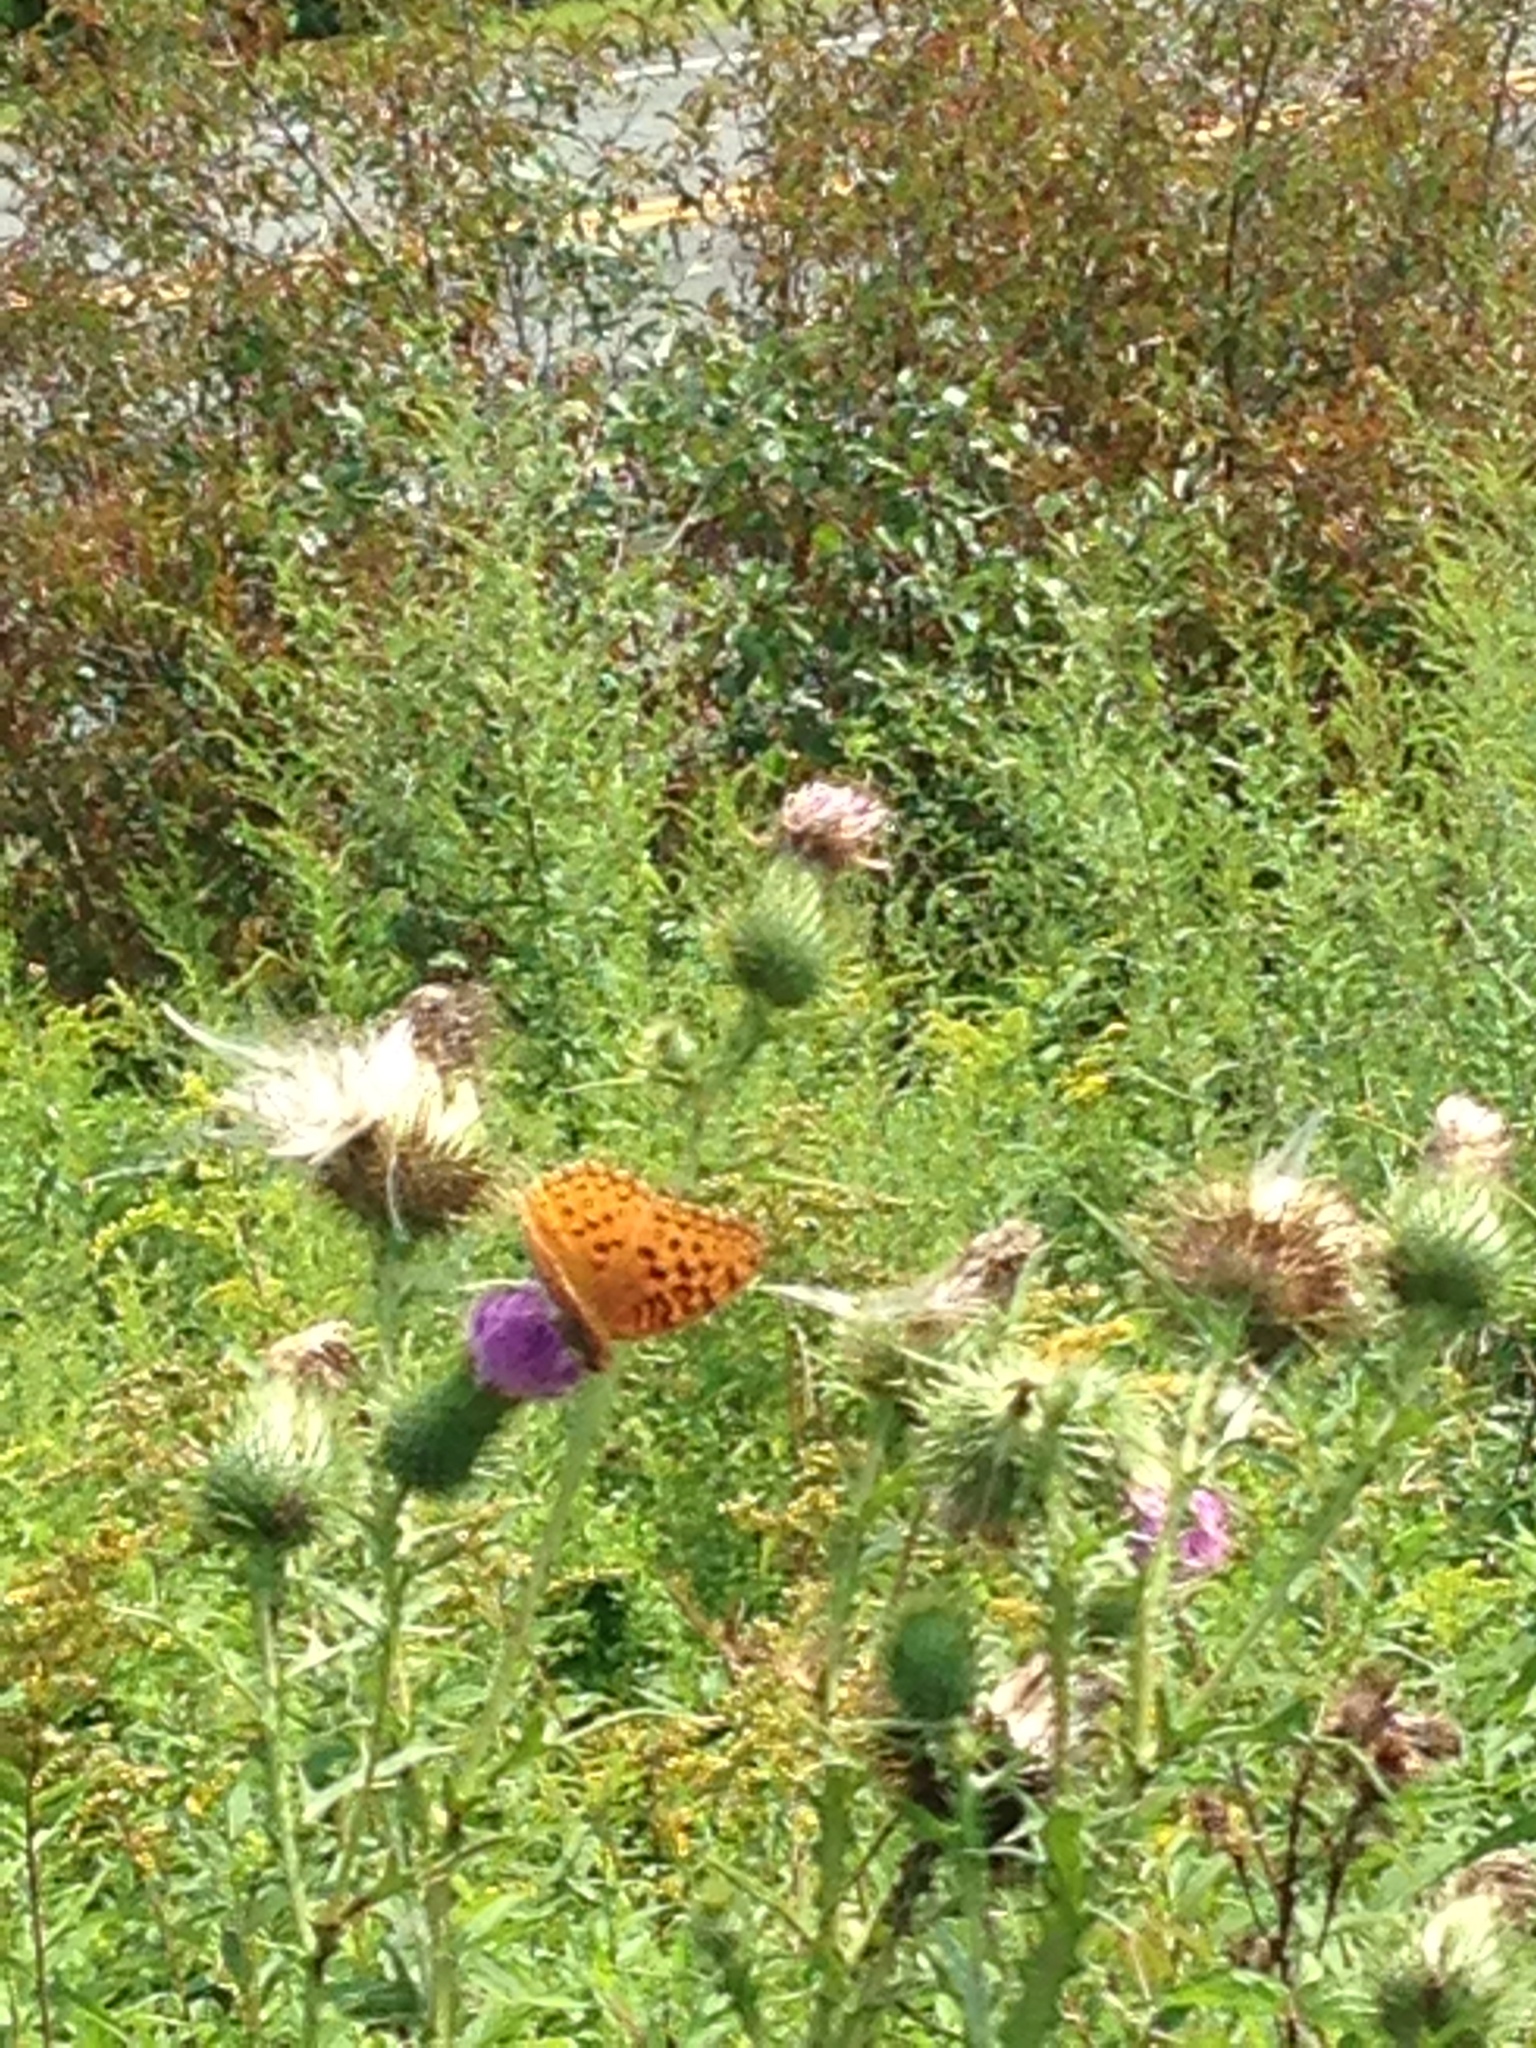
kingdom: Animalia
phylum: Arthropoda
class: Insecta
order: Lepidoptera
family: Nymphalidae
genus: Speyeria
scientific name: Speyeria aphrodite
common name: Aphrodite friitllary
